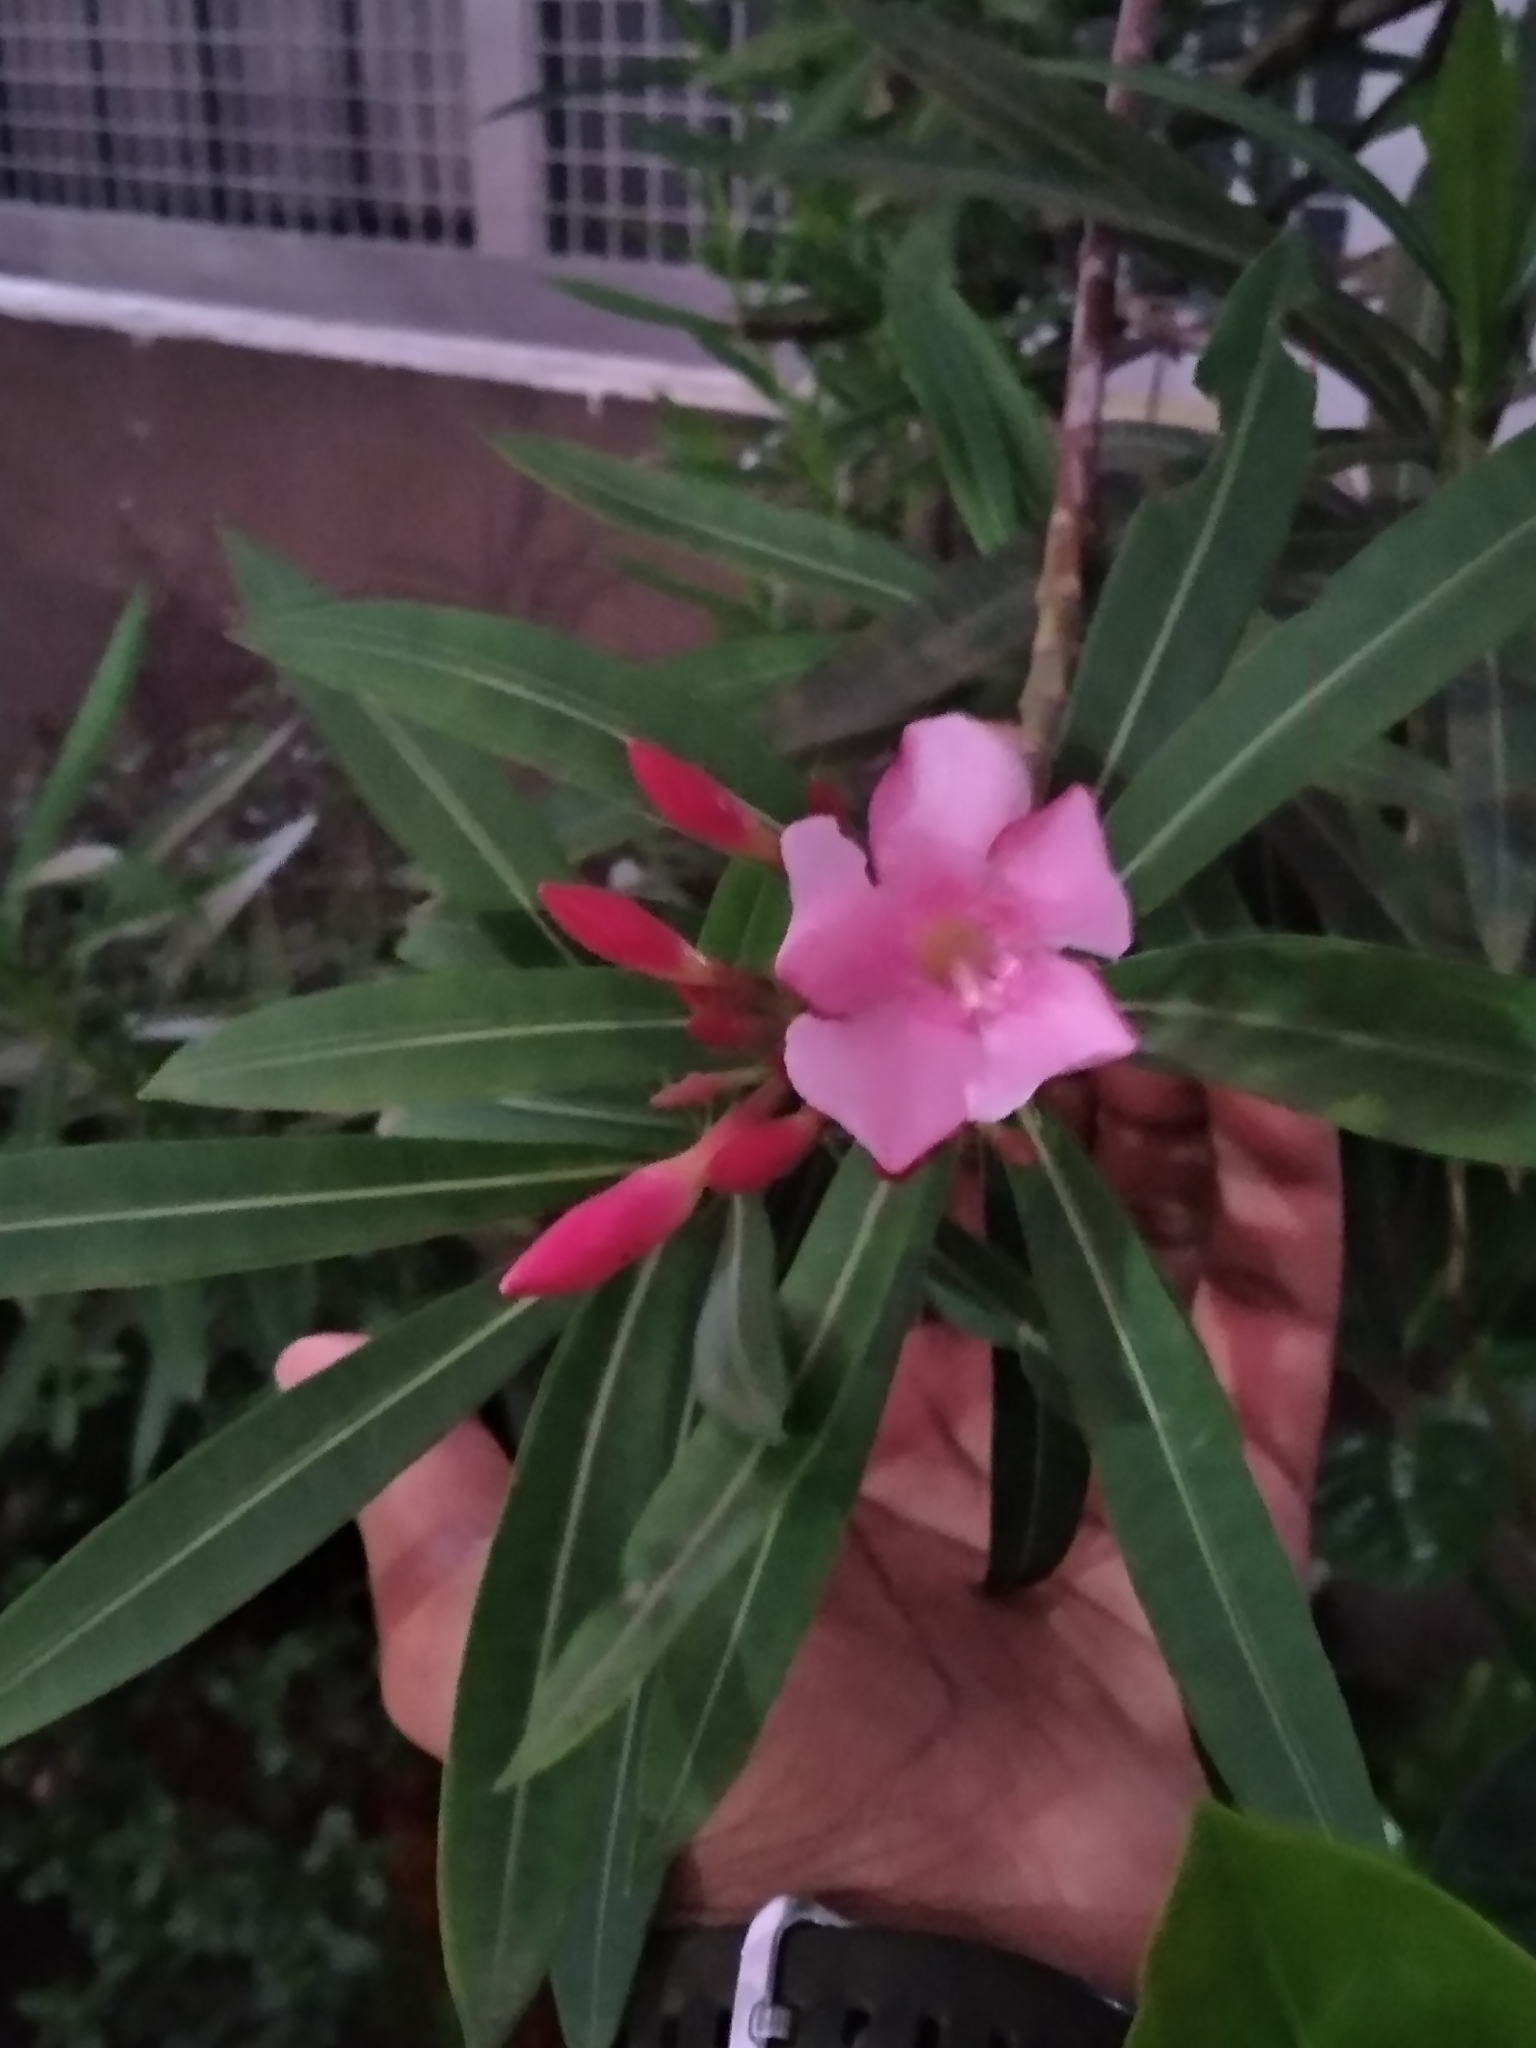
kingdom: Plantae
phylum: Tracheophyta
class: Magnoliopsida
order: Gentianales
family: Apocynaceae
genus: Nerium
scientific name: Nerium oleander
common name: Oleander
